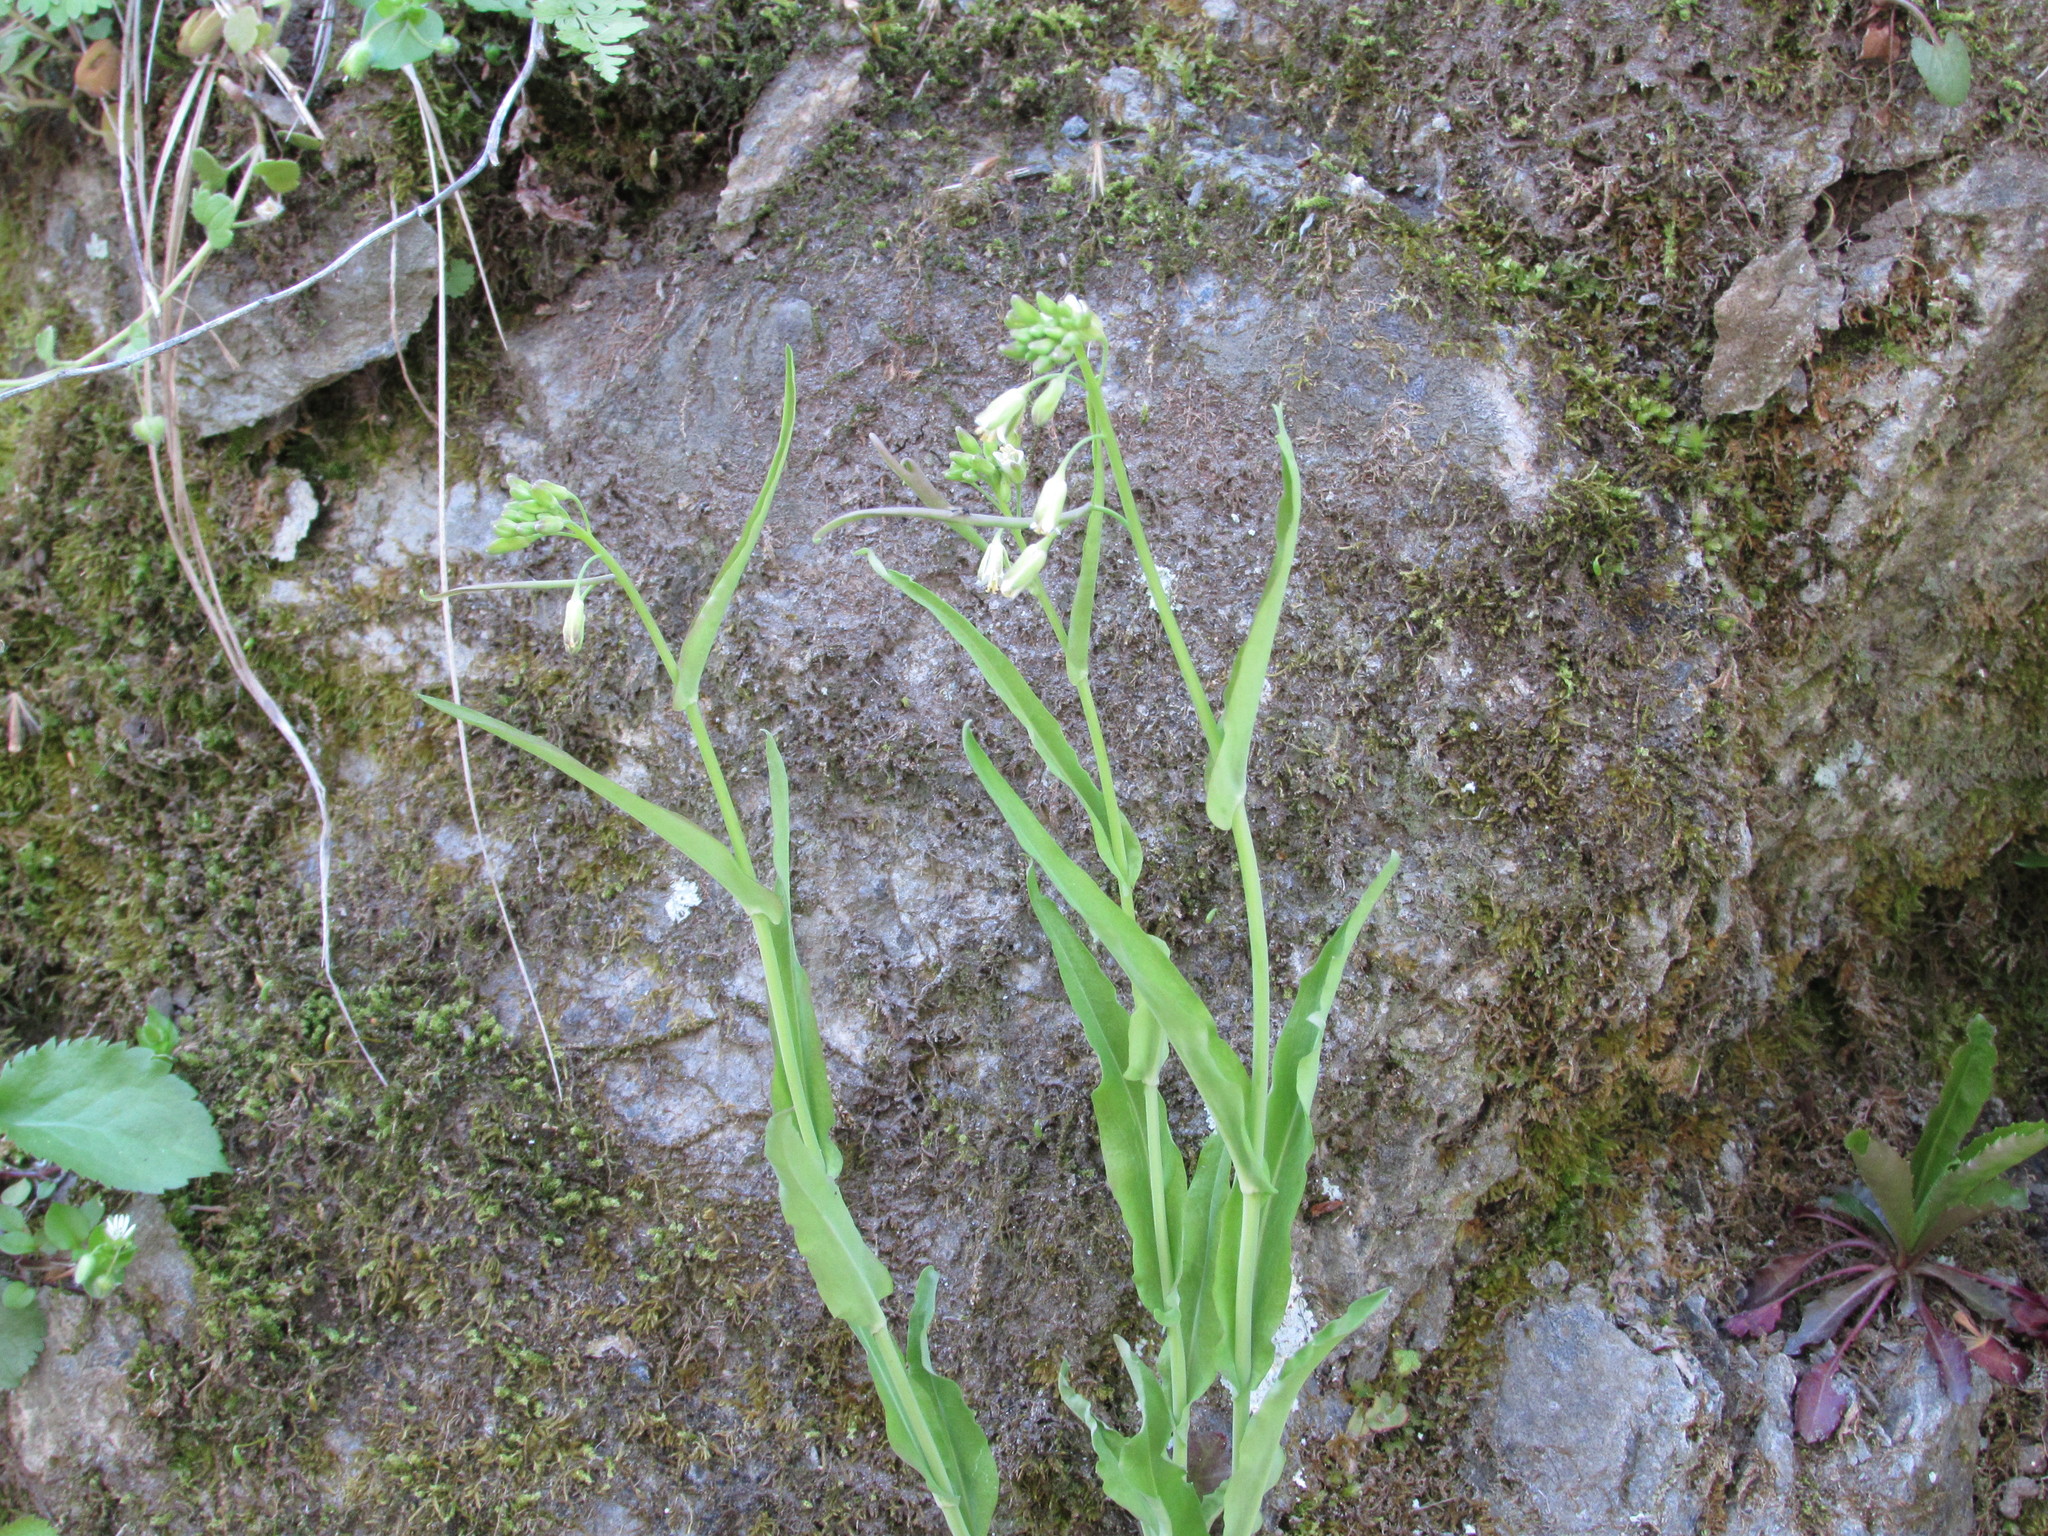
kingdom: Plantae
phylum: Tracheophyta
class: Magnoliopsida
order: Brassicales
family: Brassicaceae
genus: Borodinia
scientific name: Borodinia laevigata
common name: Smooth rockcress
